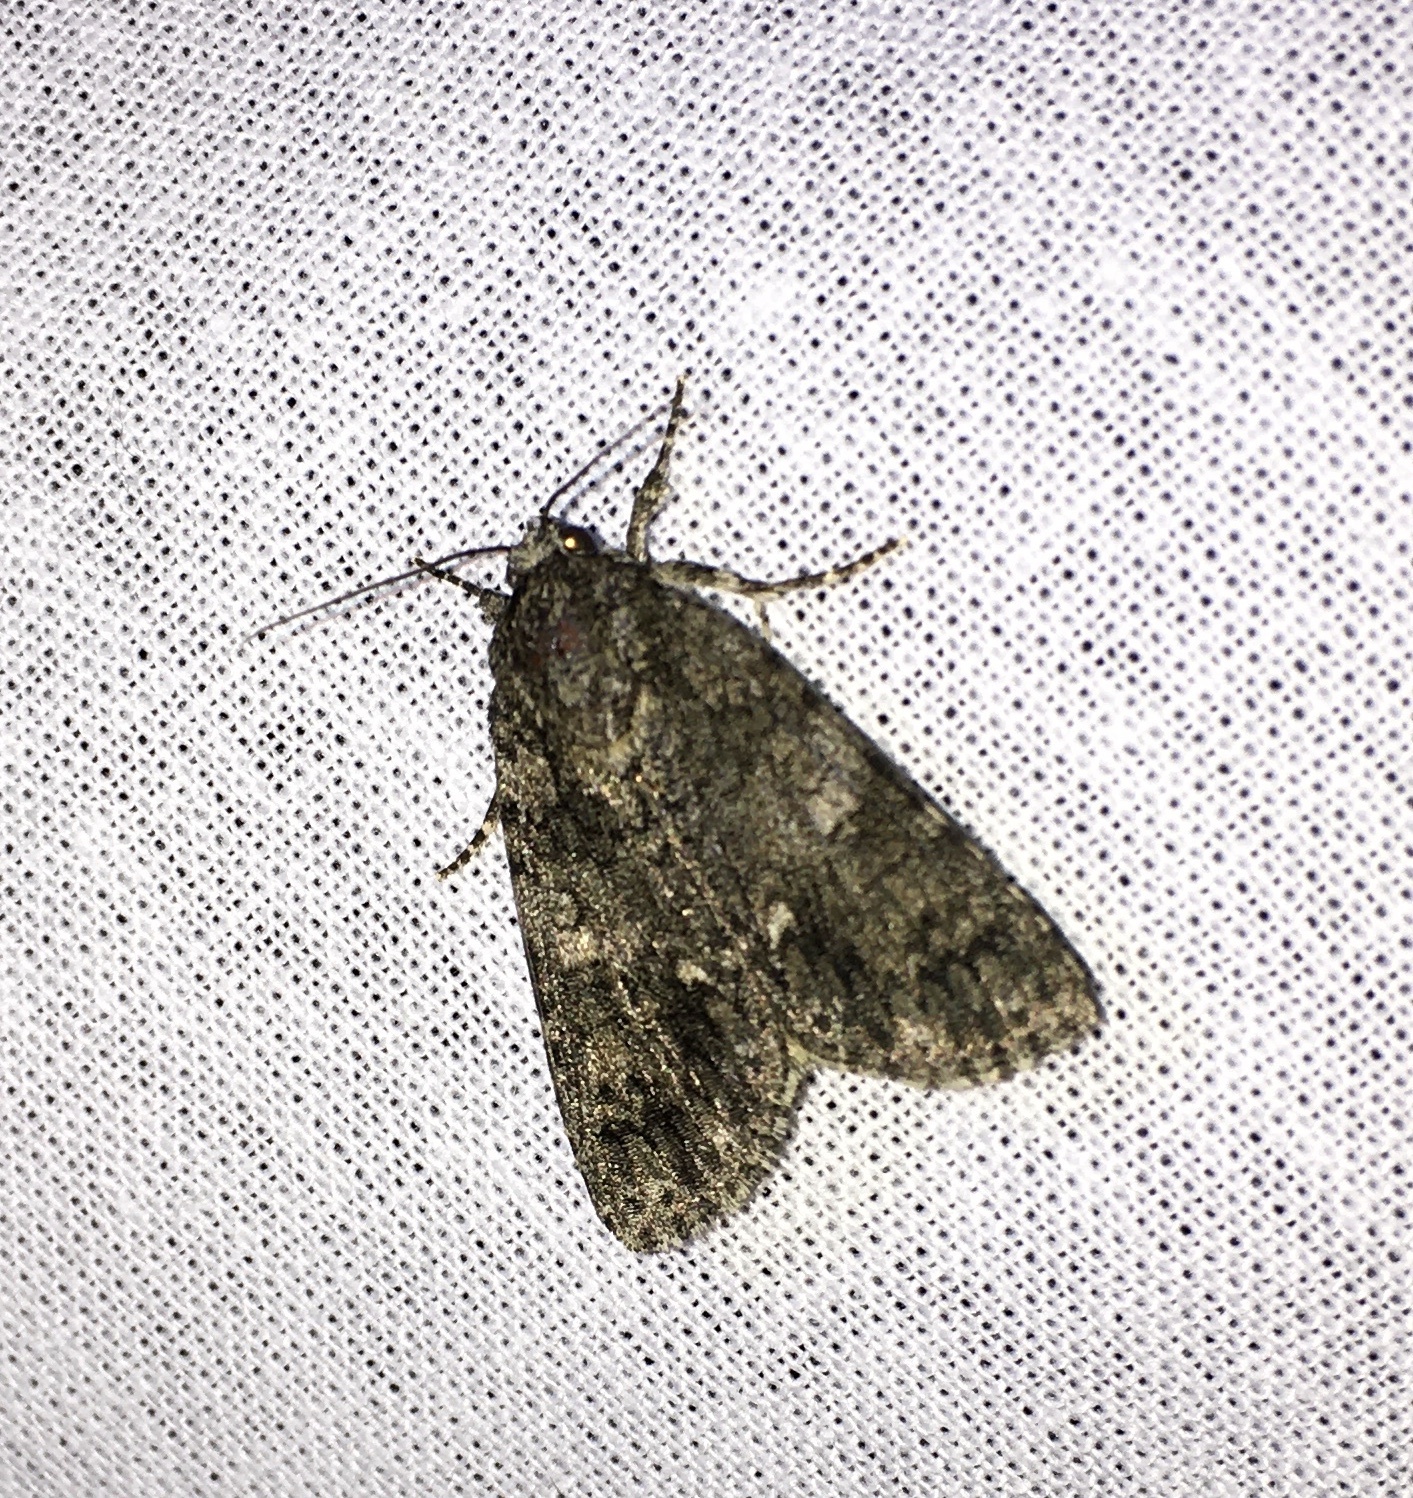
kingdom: Animalia
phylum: Arthropoda
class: Insecta
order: Lepidoptera
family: Noctuidae
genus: Acronicta
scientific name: Acronicta rumicis
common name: Knot grass
